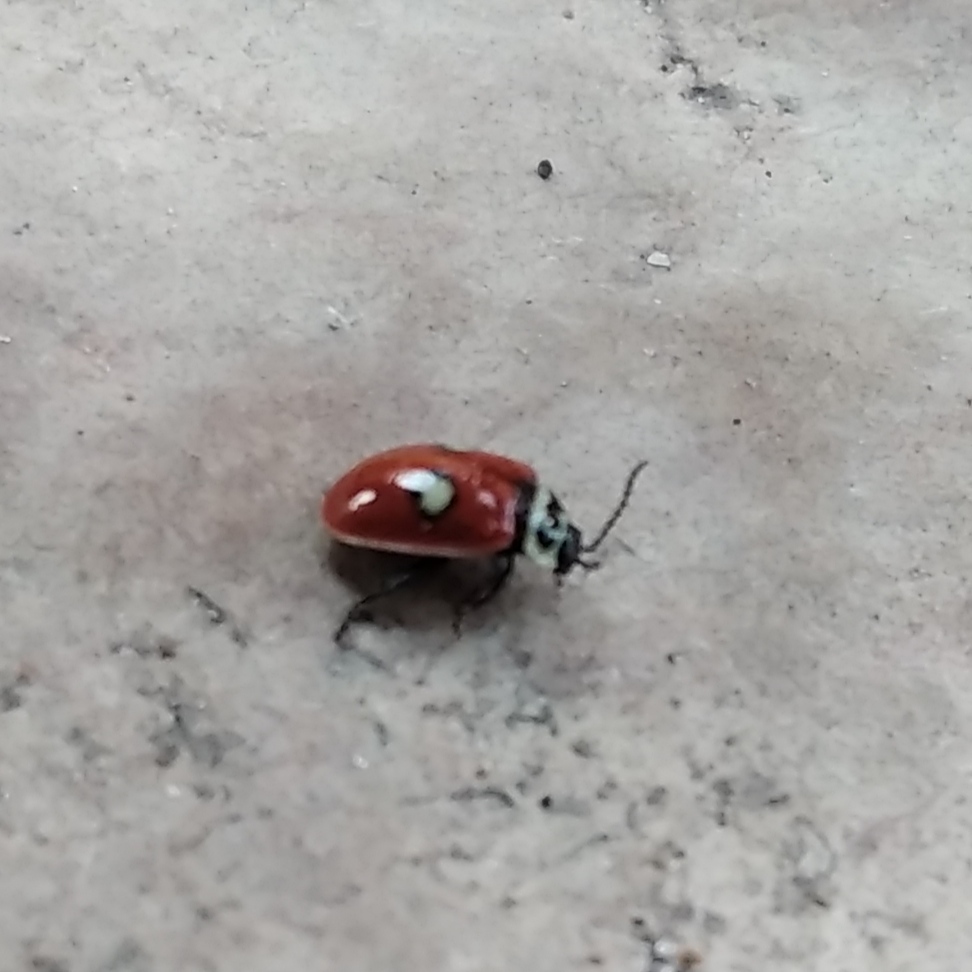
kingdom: Animalia
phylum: Arthropoda
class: Insecta
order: Coleoptera
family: Chrysomelidae
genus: Alagoasa
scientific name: Alagoasa
